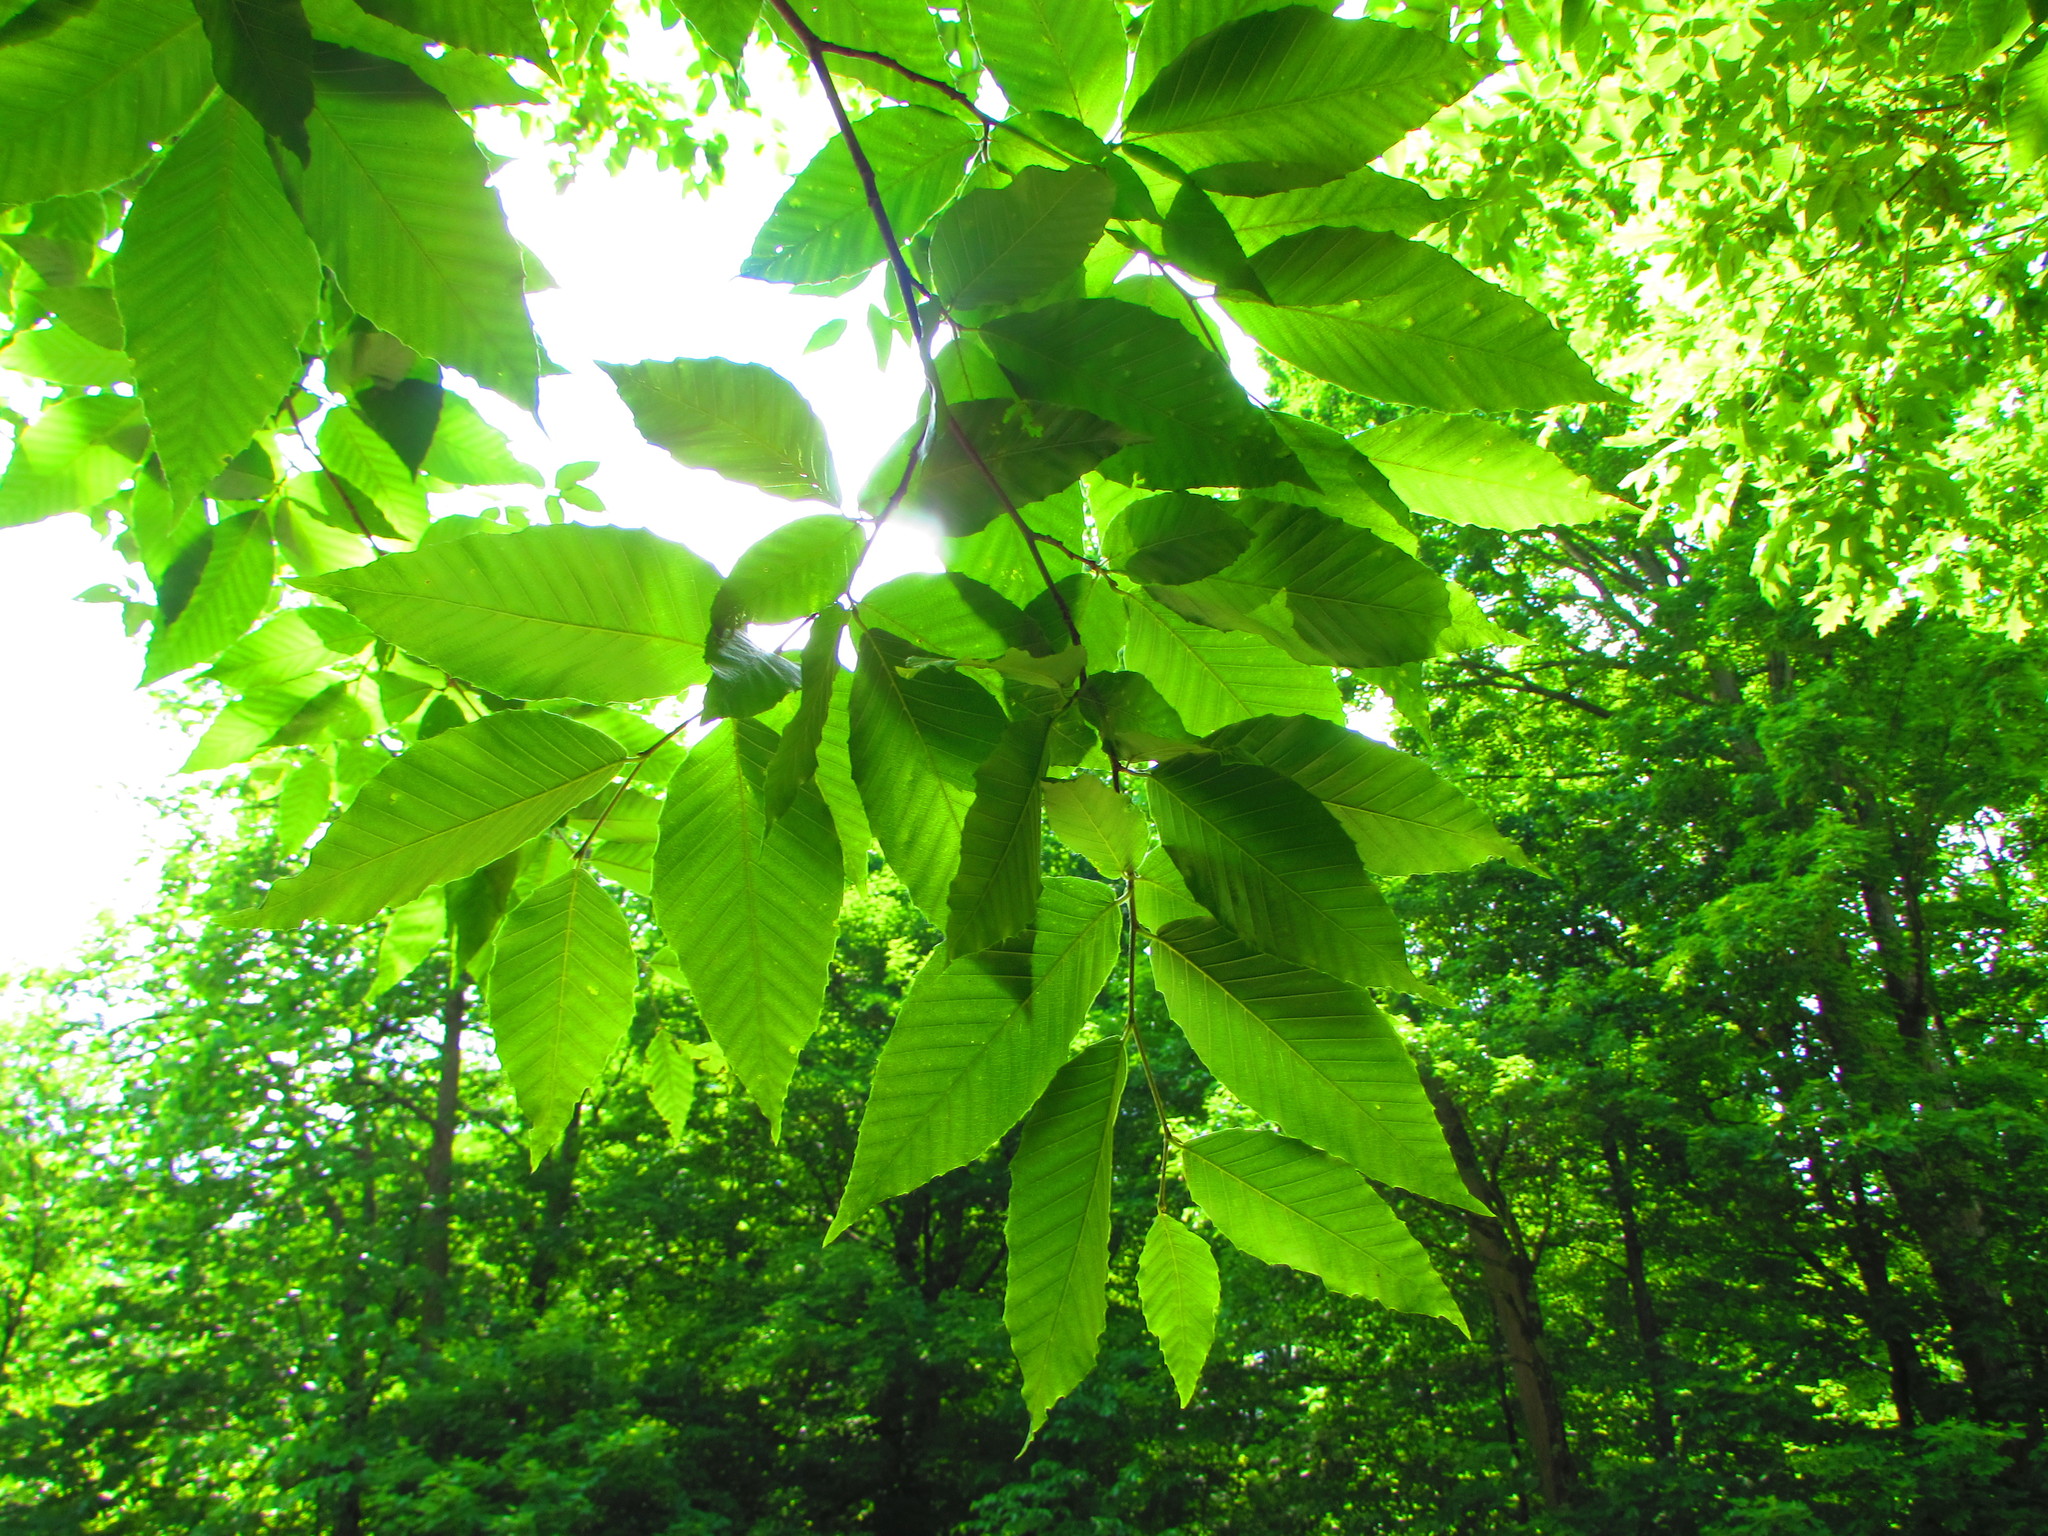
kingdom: Plantae
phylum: Tracheophyta
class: Magnoliopsida
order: Fagales
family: Fagaceae
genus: Fagus
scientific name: Fagus grandifolia
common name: American beech
